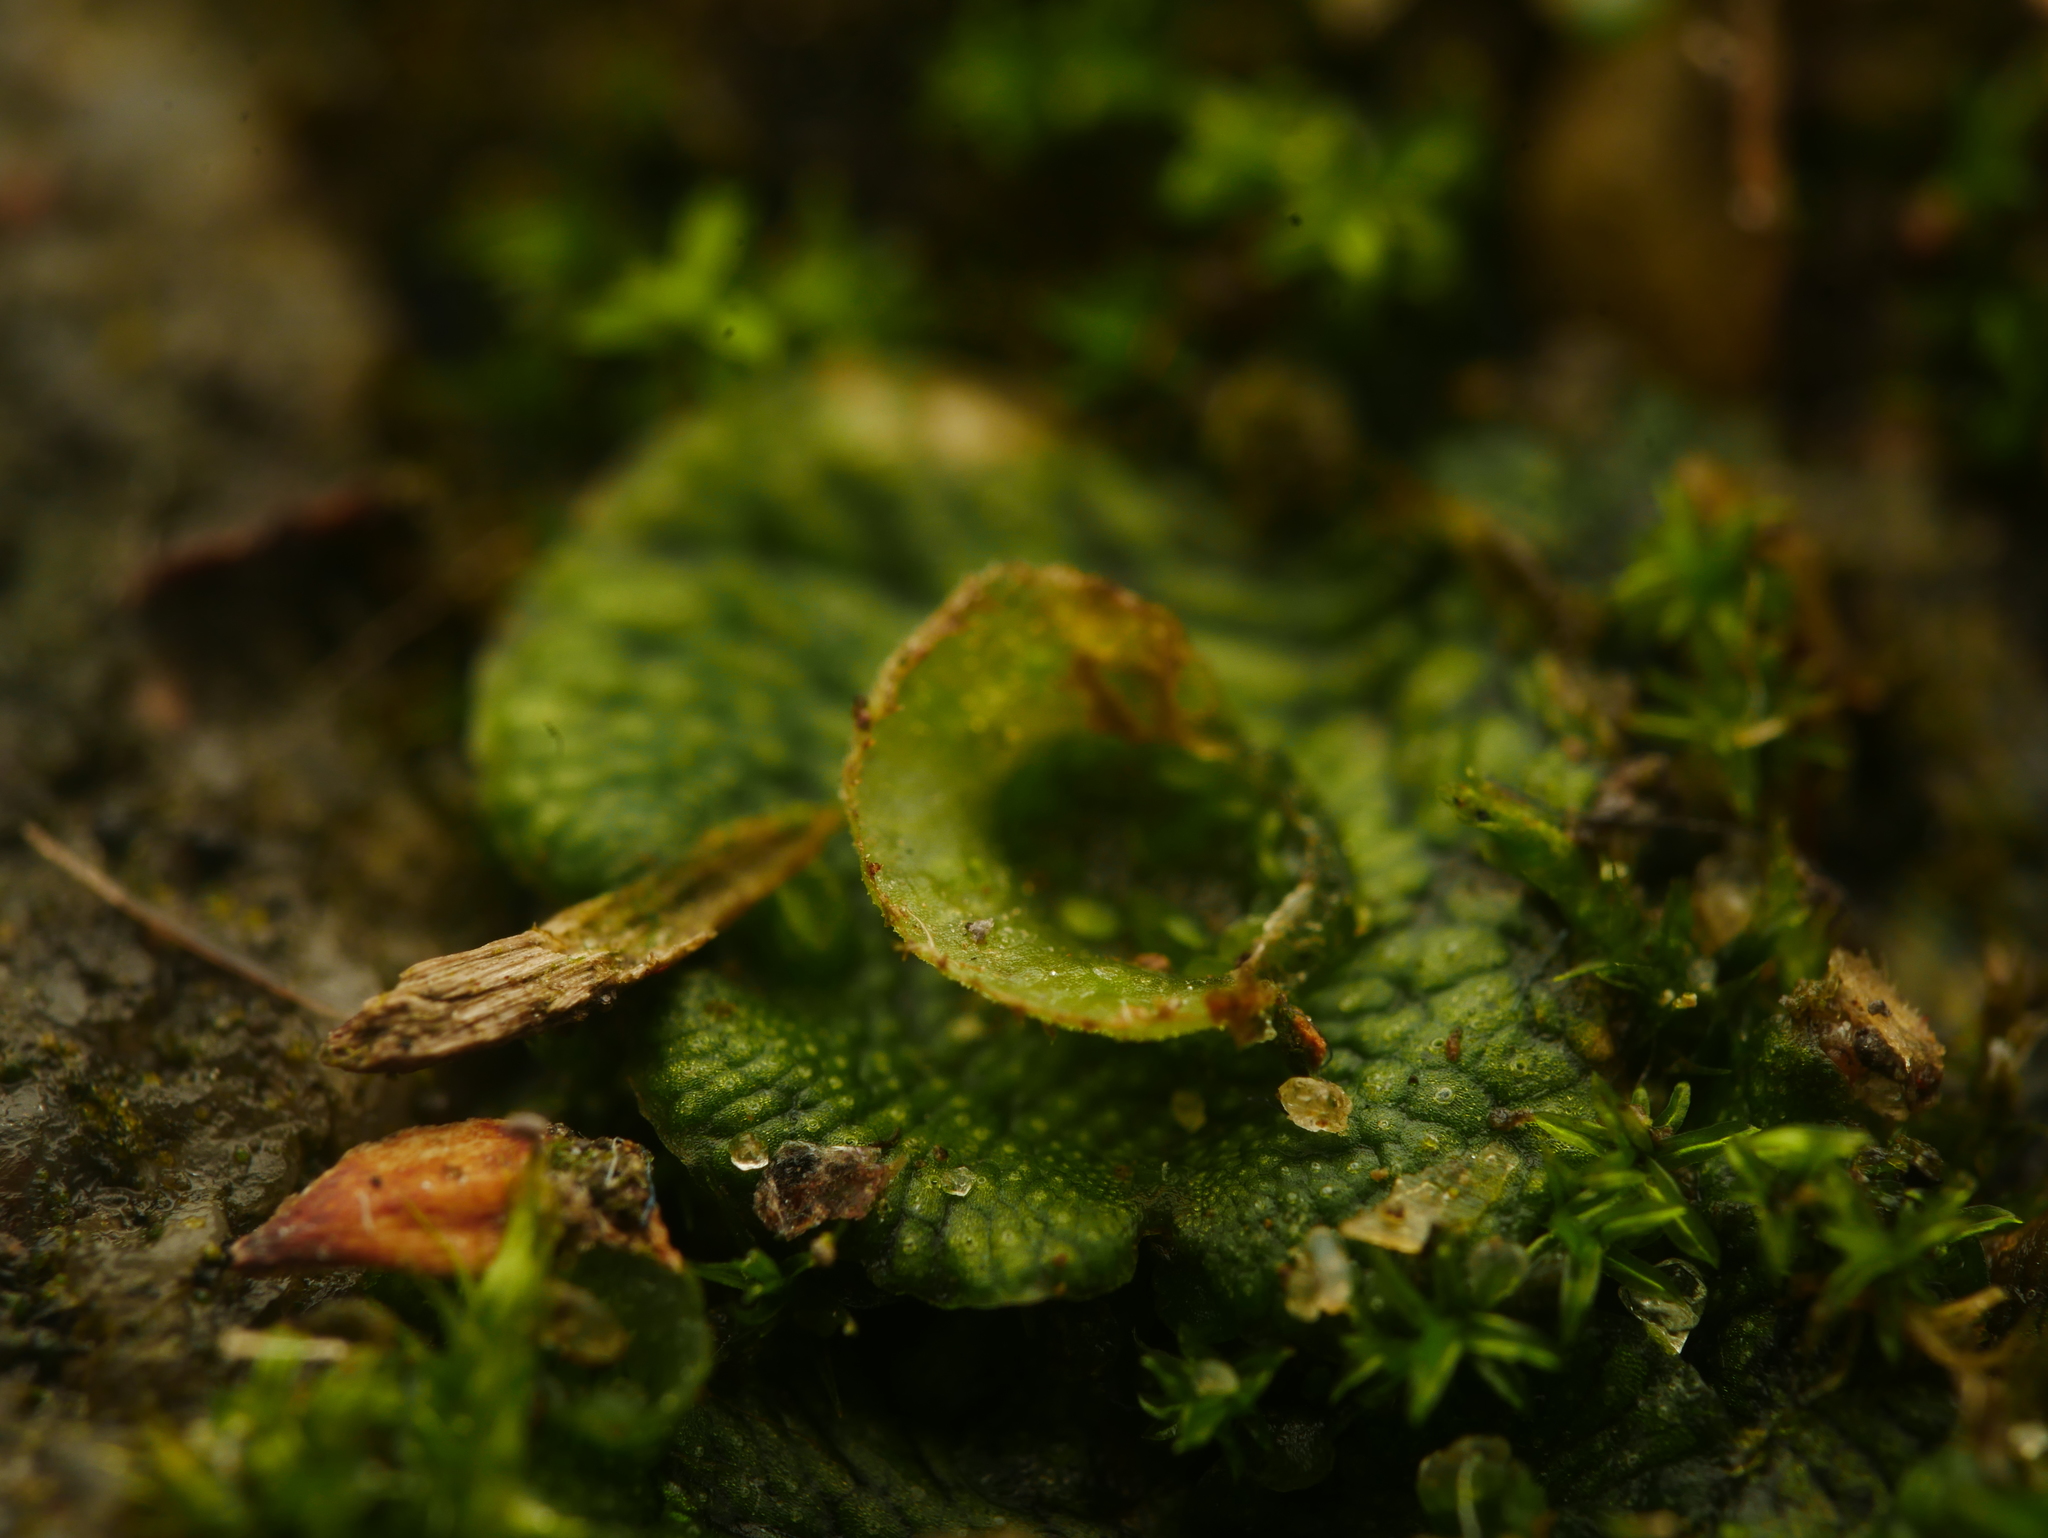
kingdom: Plantae
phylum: Marchantiophyta
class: Marchantiopsida
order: Marchantiales
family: Marchantiaceae
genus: Marchantia
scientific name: Marchantia polymorpha
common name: Common liverwort
